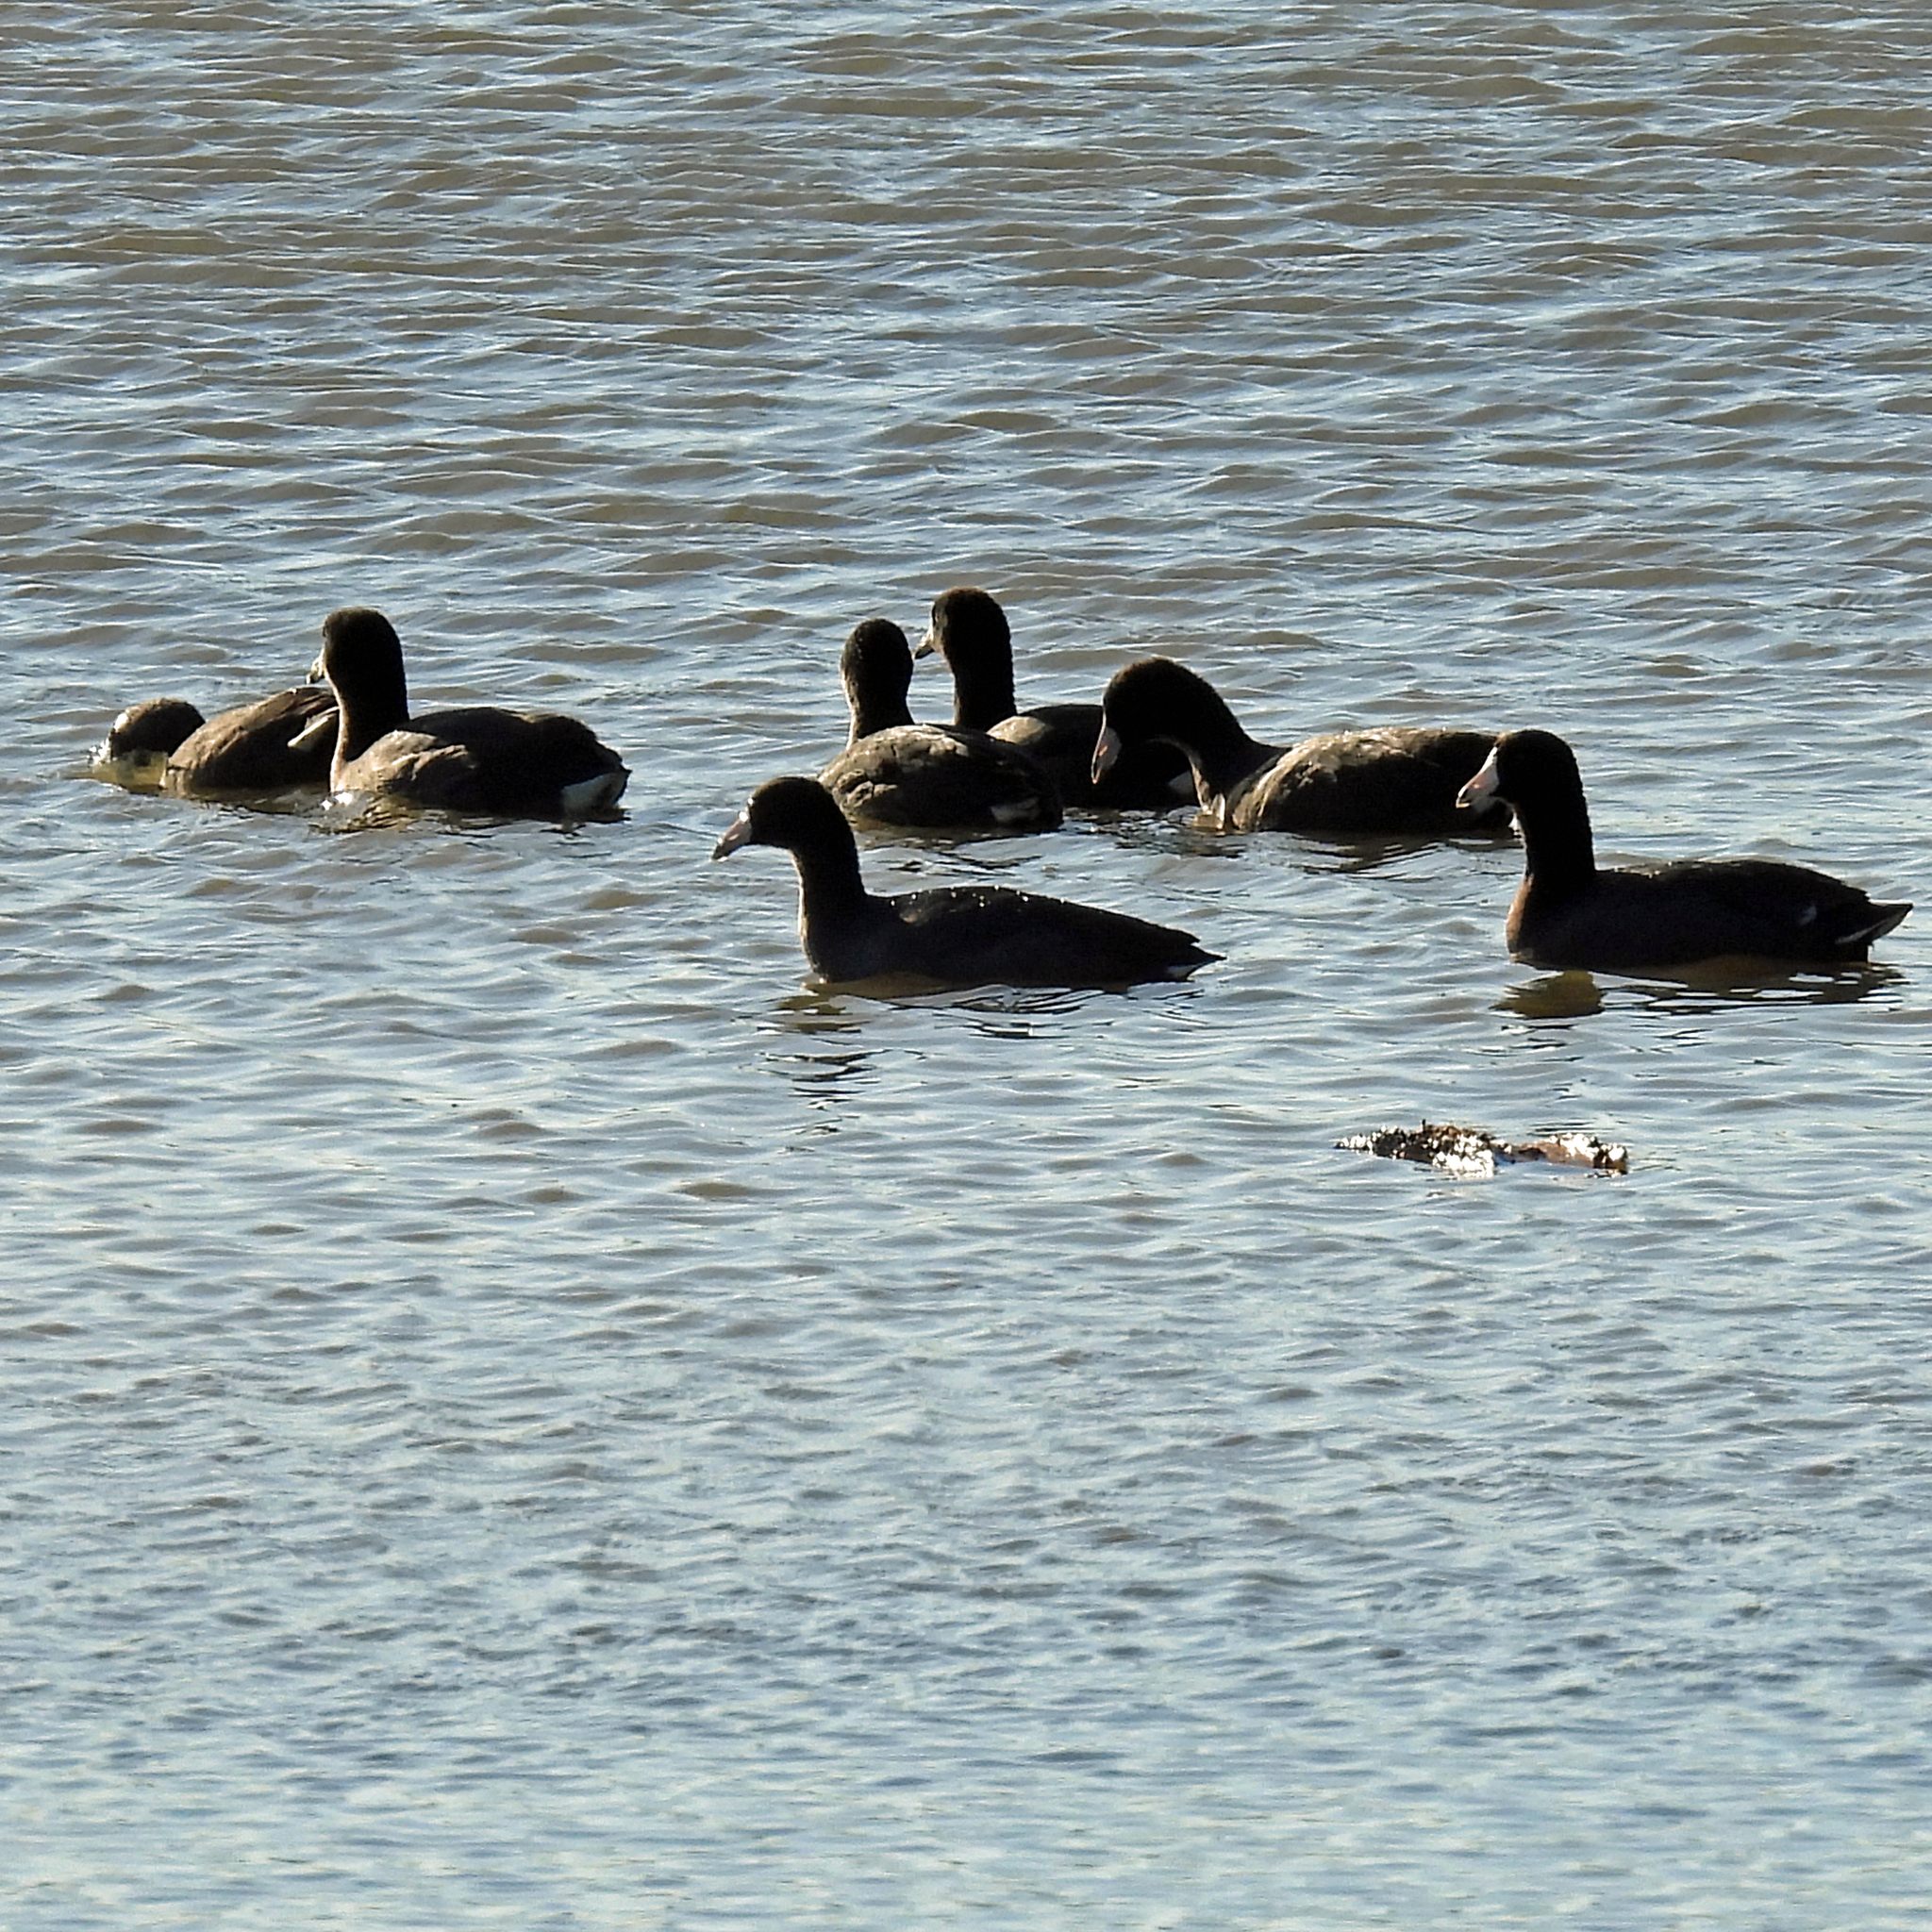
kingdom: Animalia
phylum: Chordata
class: Aves
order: Gruiformes
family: Rallidae
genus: Fulica
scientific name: Fulica americana
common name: American coot
